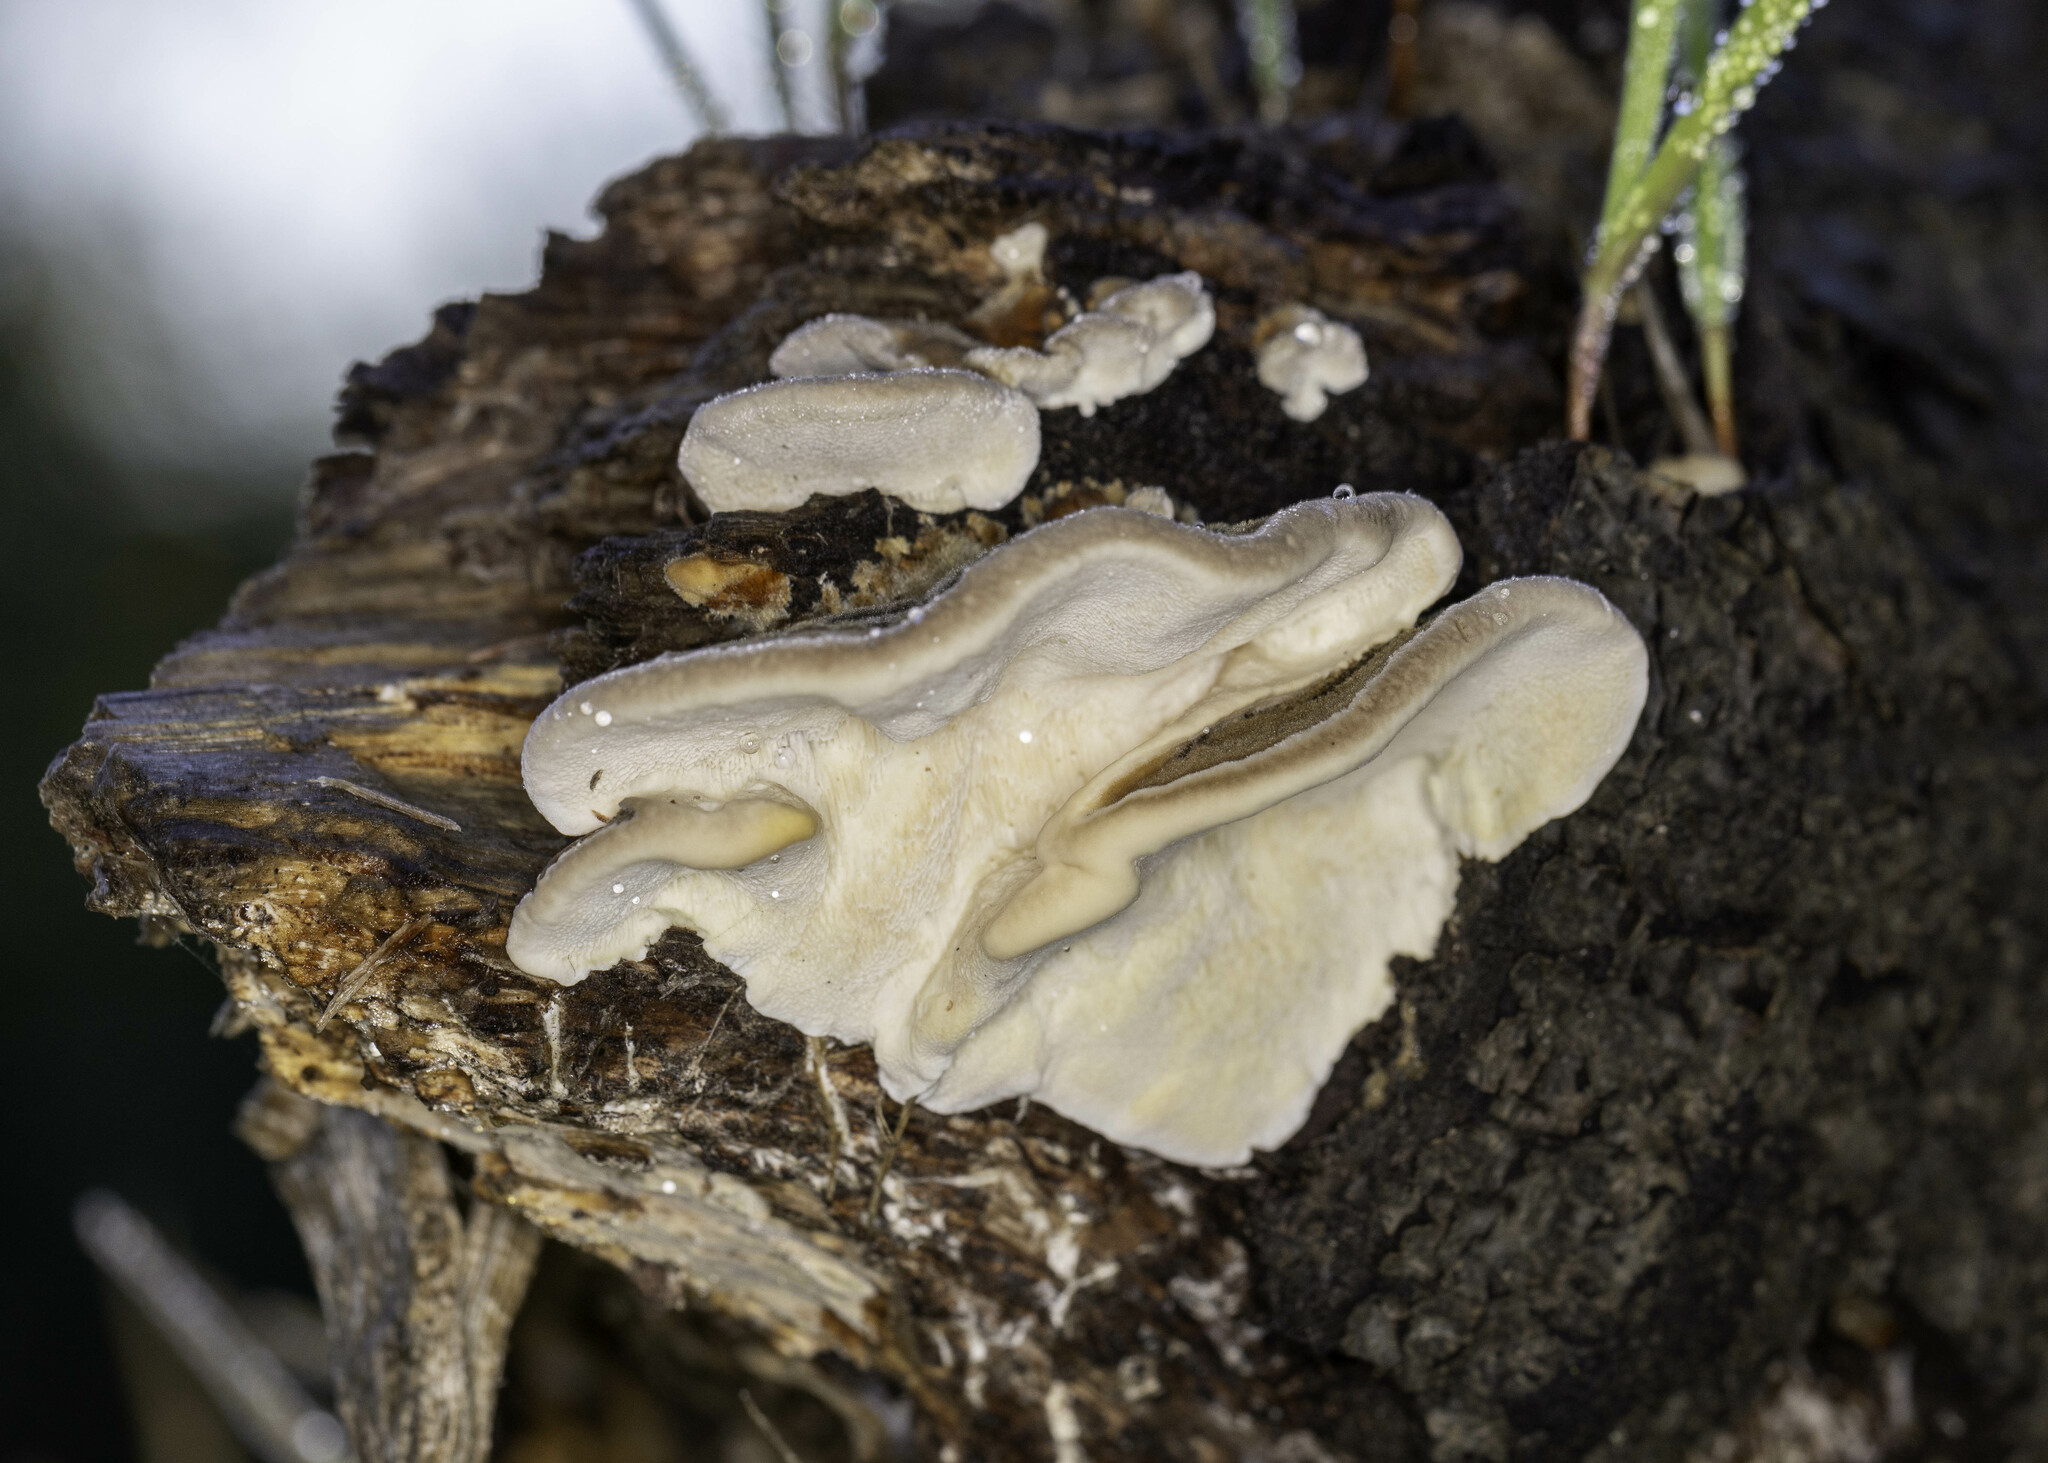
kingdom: Fungi
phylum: Basidiomycota
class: Agaricomycetes
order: Polyporales
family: Polyporaceae
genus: Trametes
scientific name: Trametes versicolor
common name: Turkeytail
